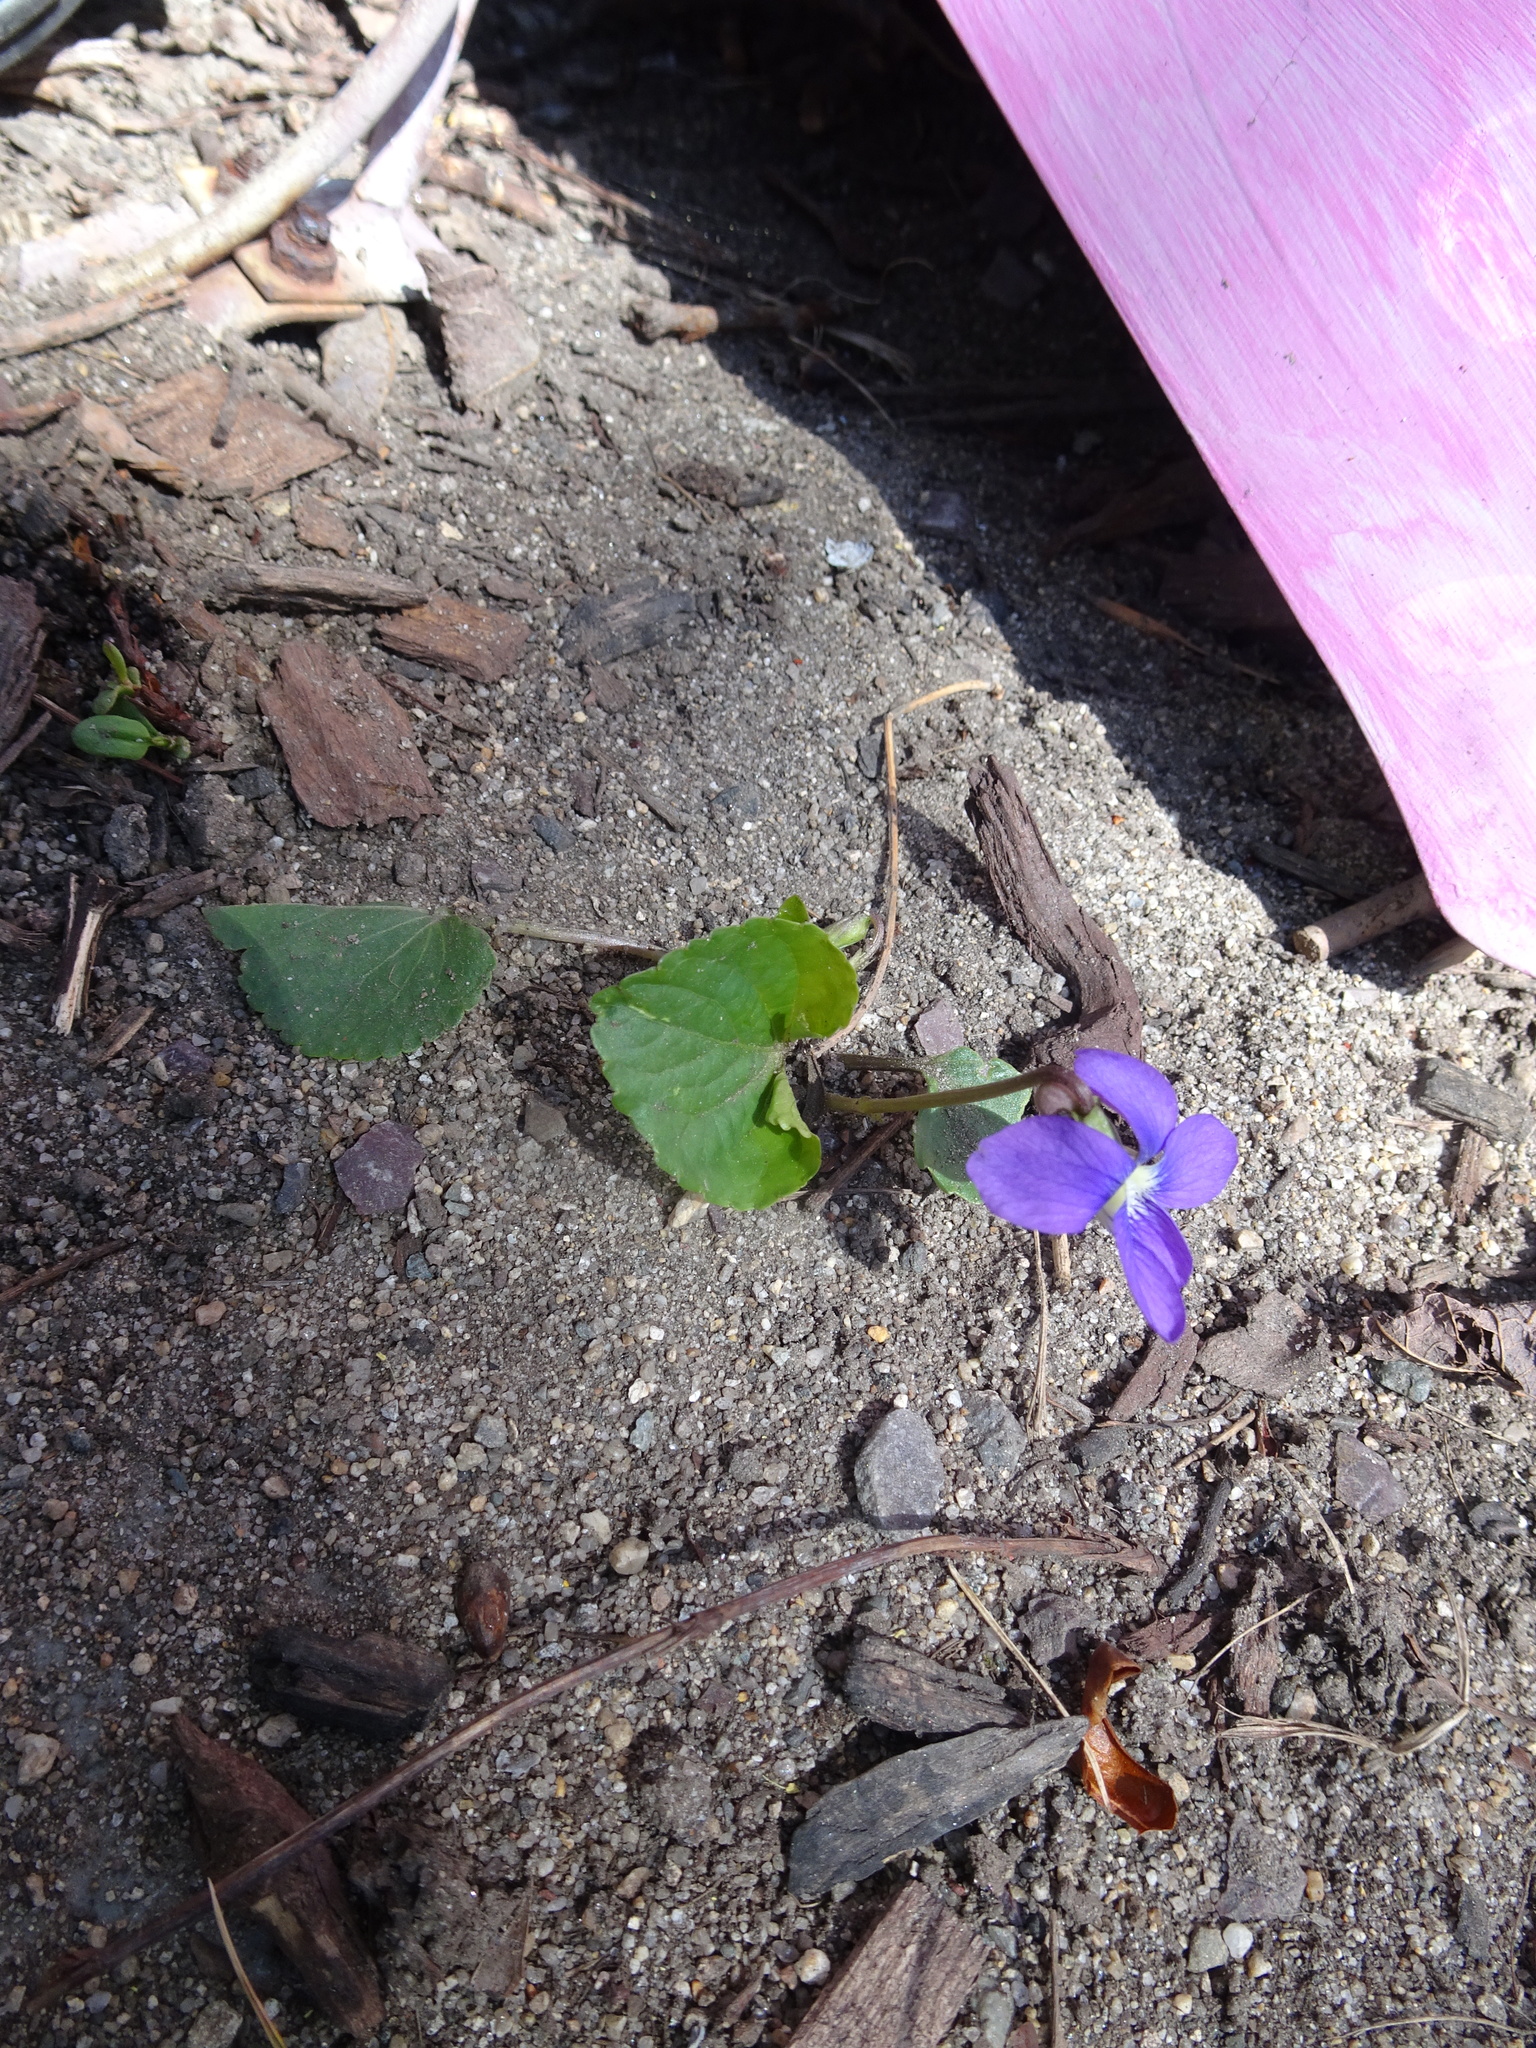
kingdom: Plantae
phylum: Tracheophyta
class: Magnoliopsida
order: Malpighiales
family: Violaceae
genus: Viola
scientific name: Viola sororia
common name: Dooryard violet
